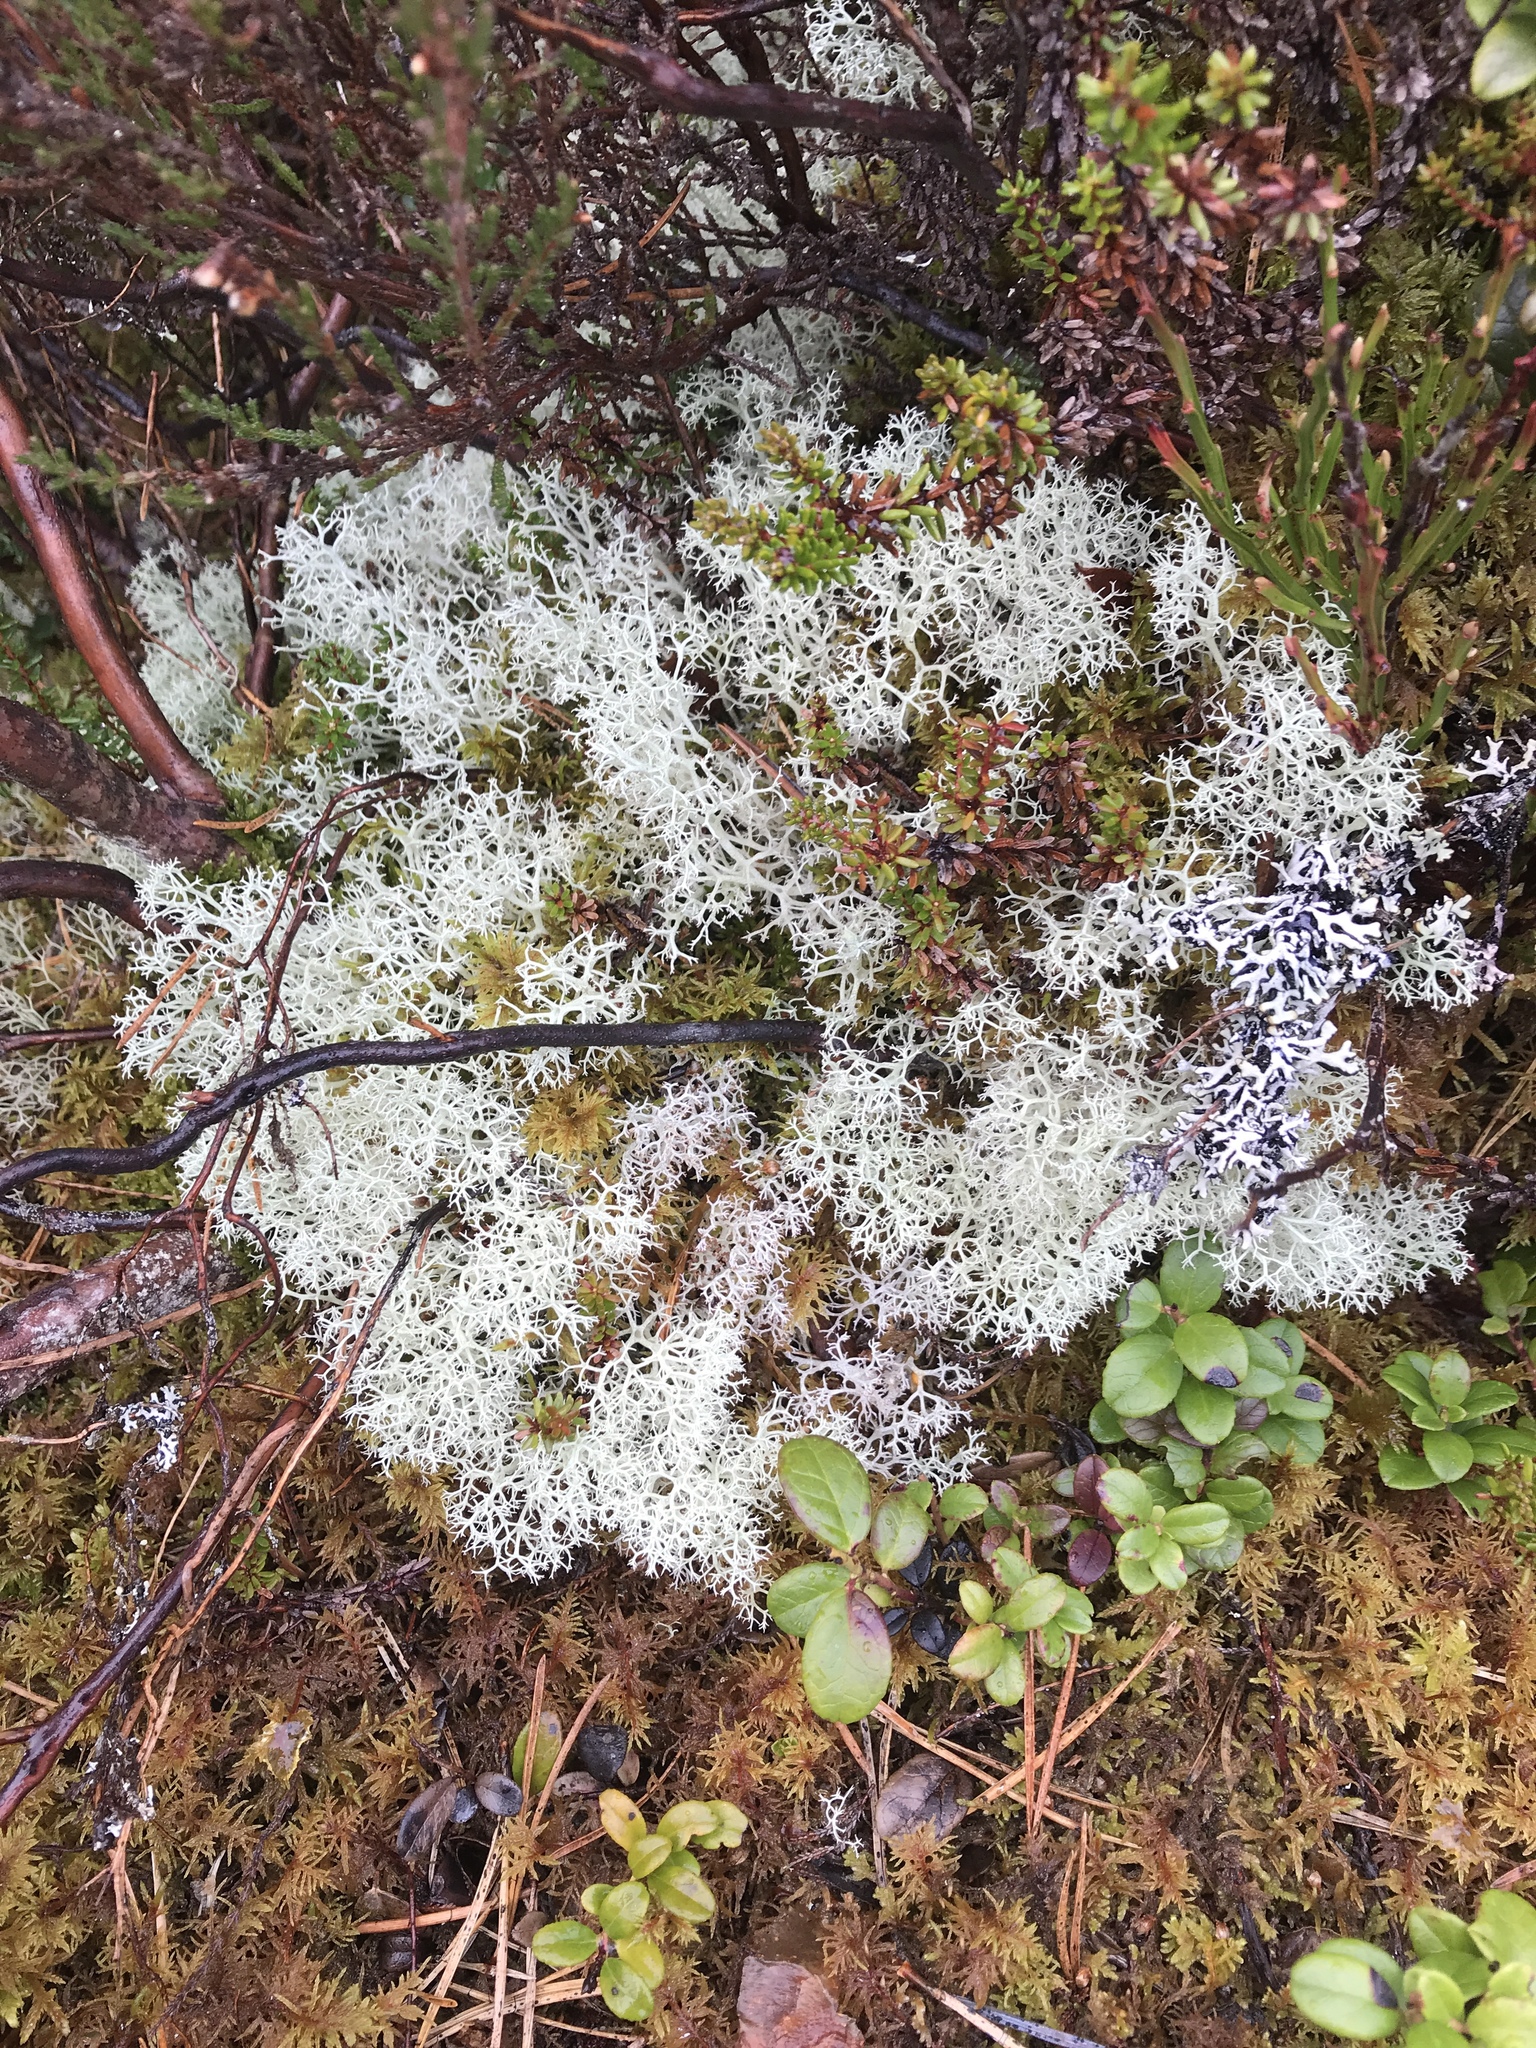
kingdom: Fungi
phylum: Ascomycota
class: Lecanoromycetes
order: Lecanorales
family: Cladoniaceae
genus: Cladonia
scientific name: Cladonia portentosa
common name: Reindeer lichen
